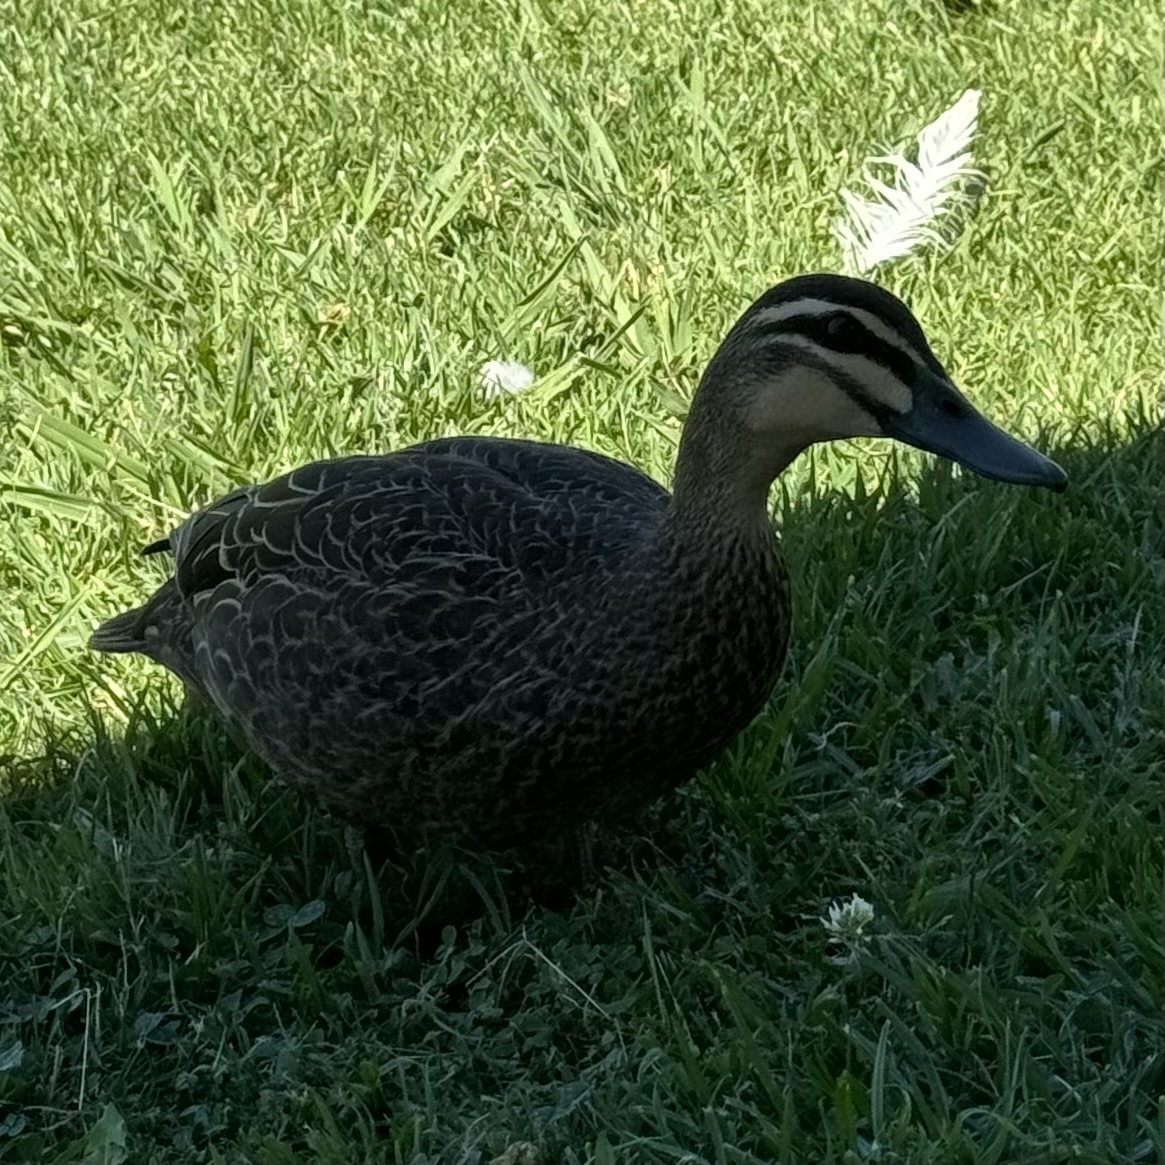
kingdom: Animalia
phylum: Chordata
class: Aves
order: Anseriformes
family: Anatidae
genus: Anas
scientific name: Anas superciliosa
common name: Pacific black duck
